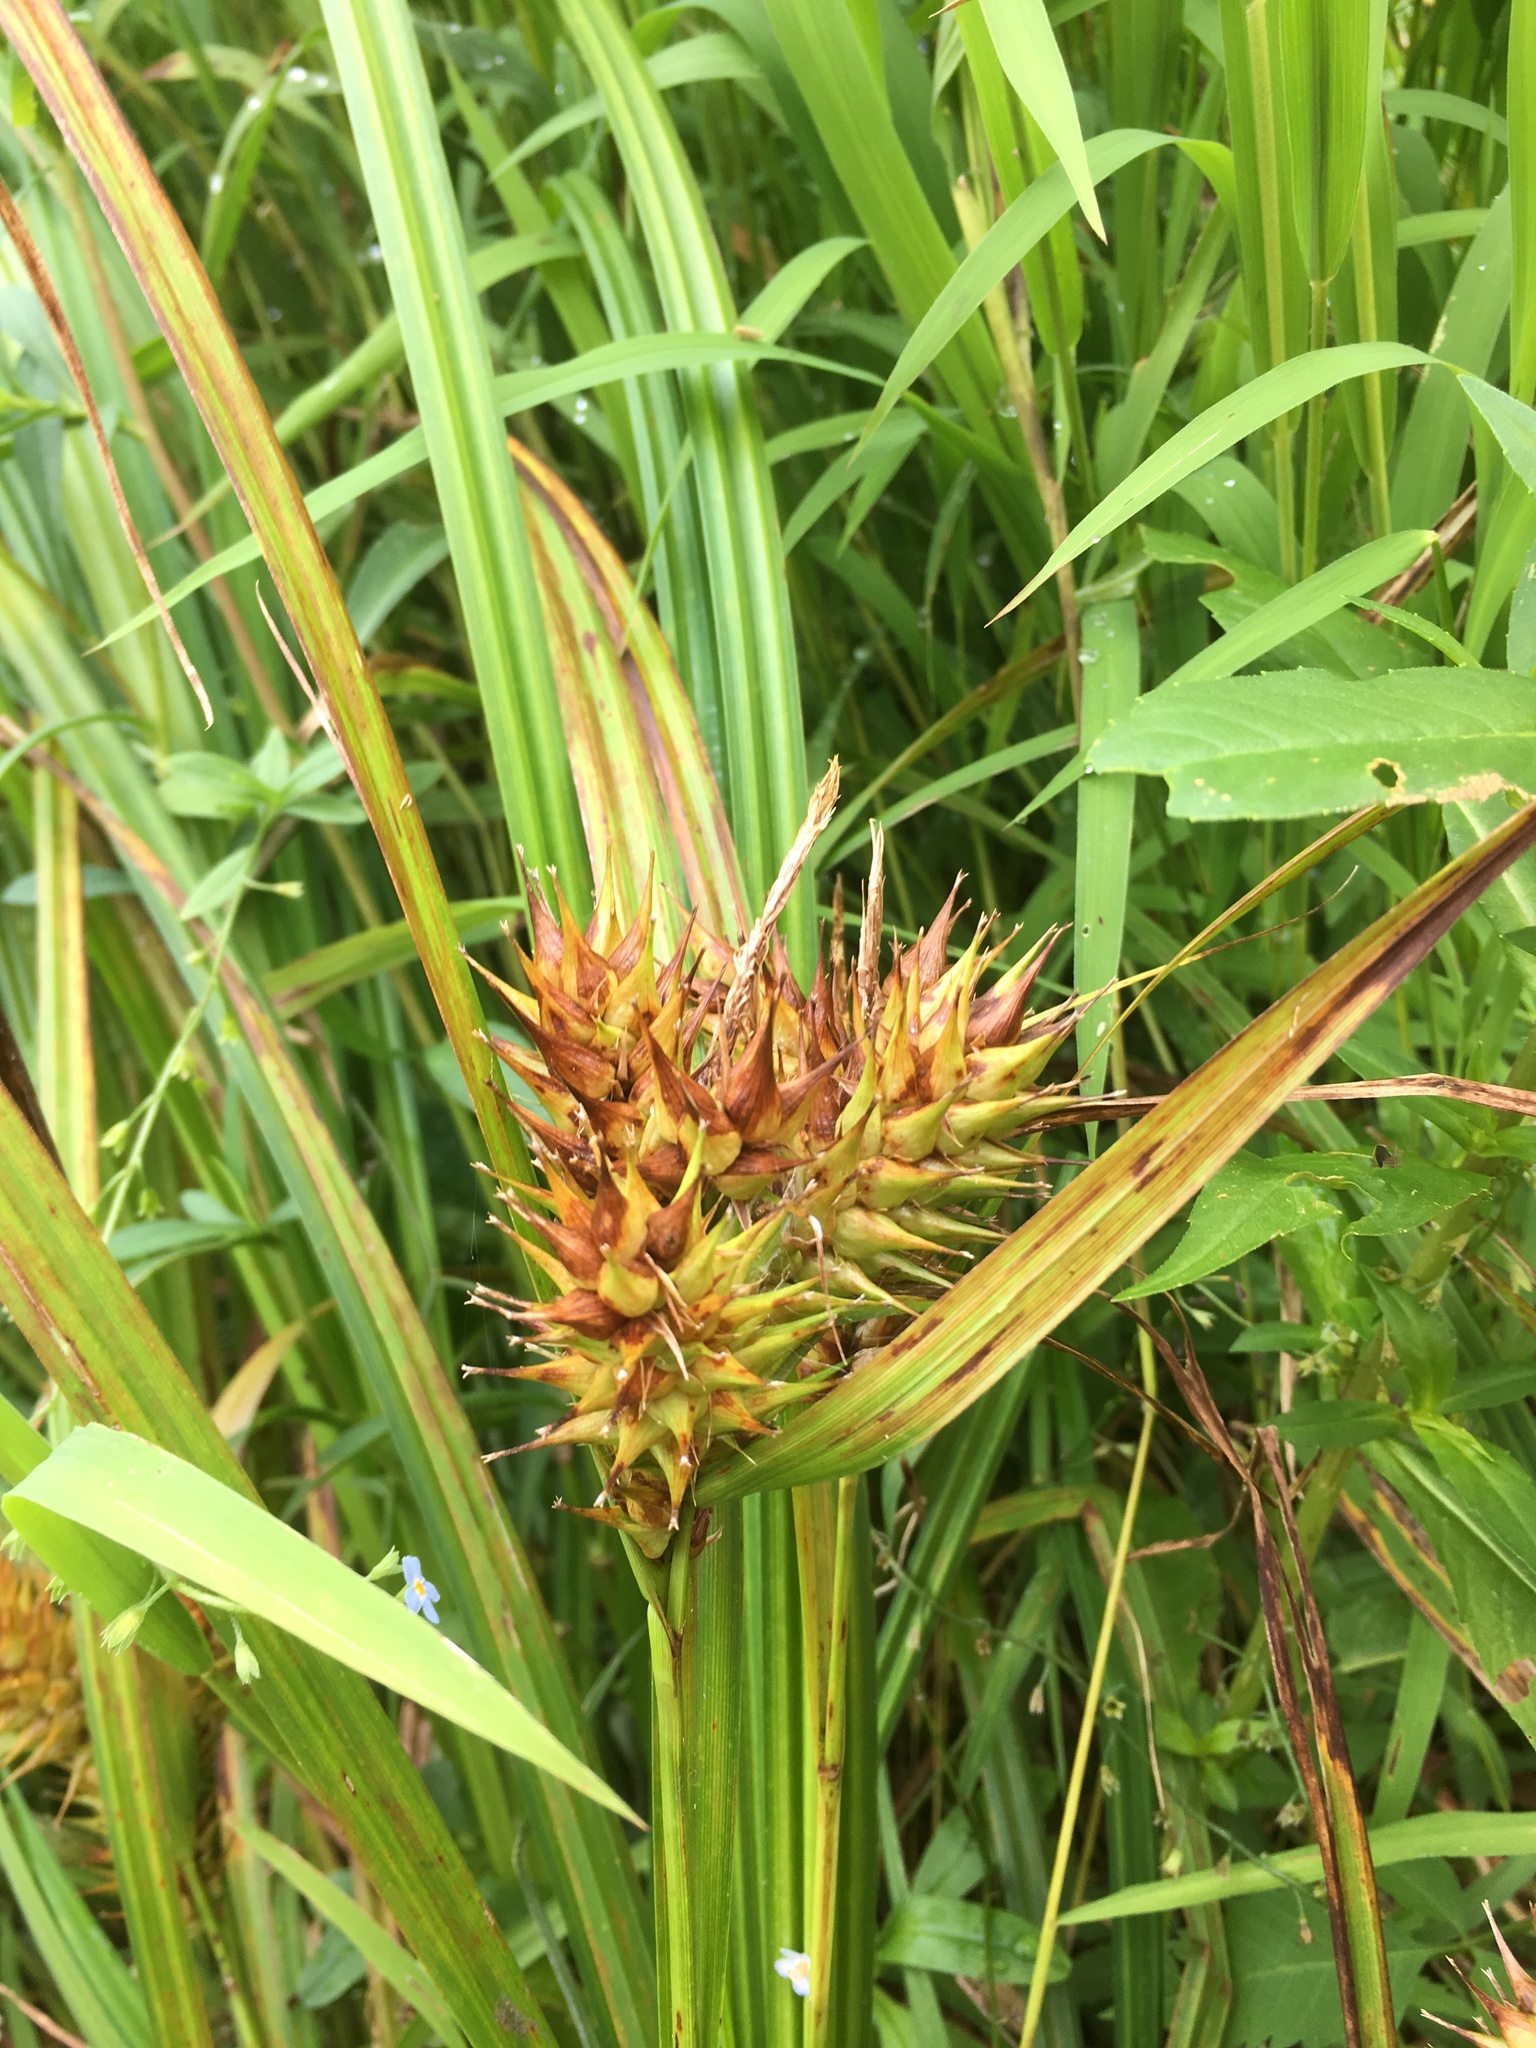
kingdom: Plantae
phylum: Tracheophyta
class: Liliopsida
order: Poales
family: Cyperaceae
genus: Carex
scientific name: Carex lupulina
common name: Hop sedge
